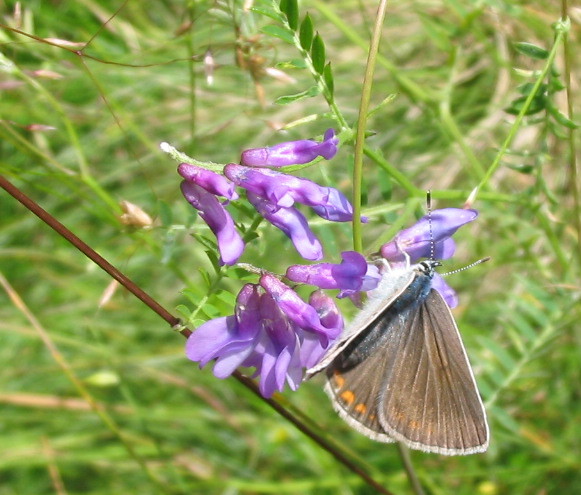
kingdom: Animalia
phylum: Arthropoda
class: Insecta
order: Lepidoptera
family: Lycaenidae
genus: Plebejus
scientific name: Plebejus amanda
